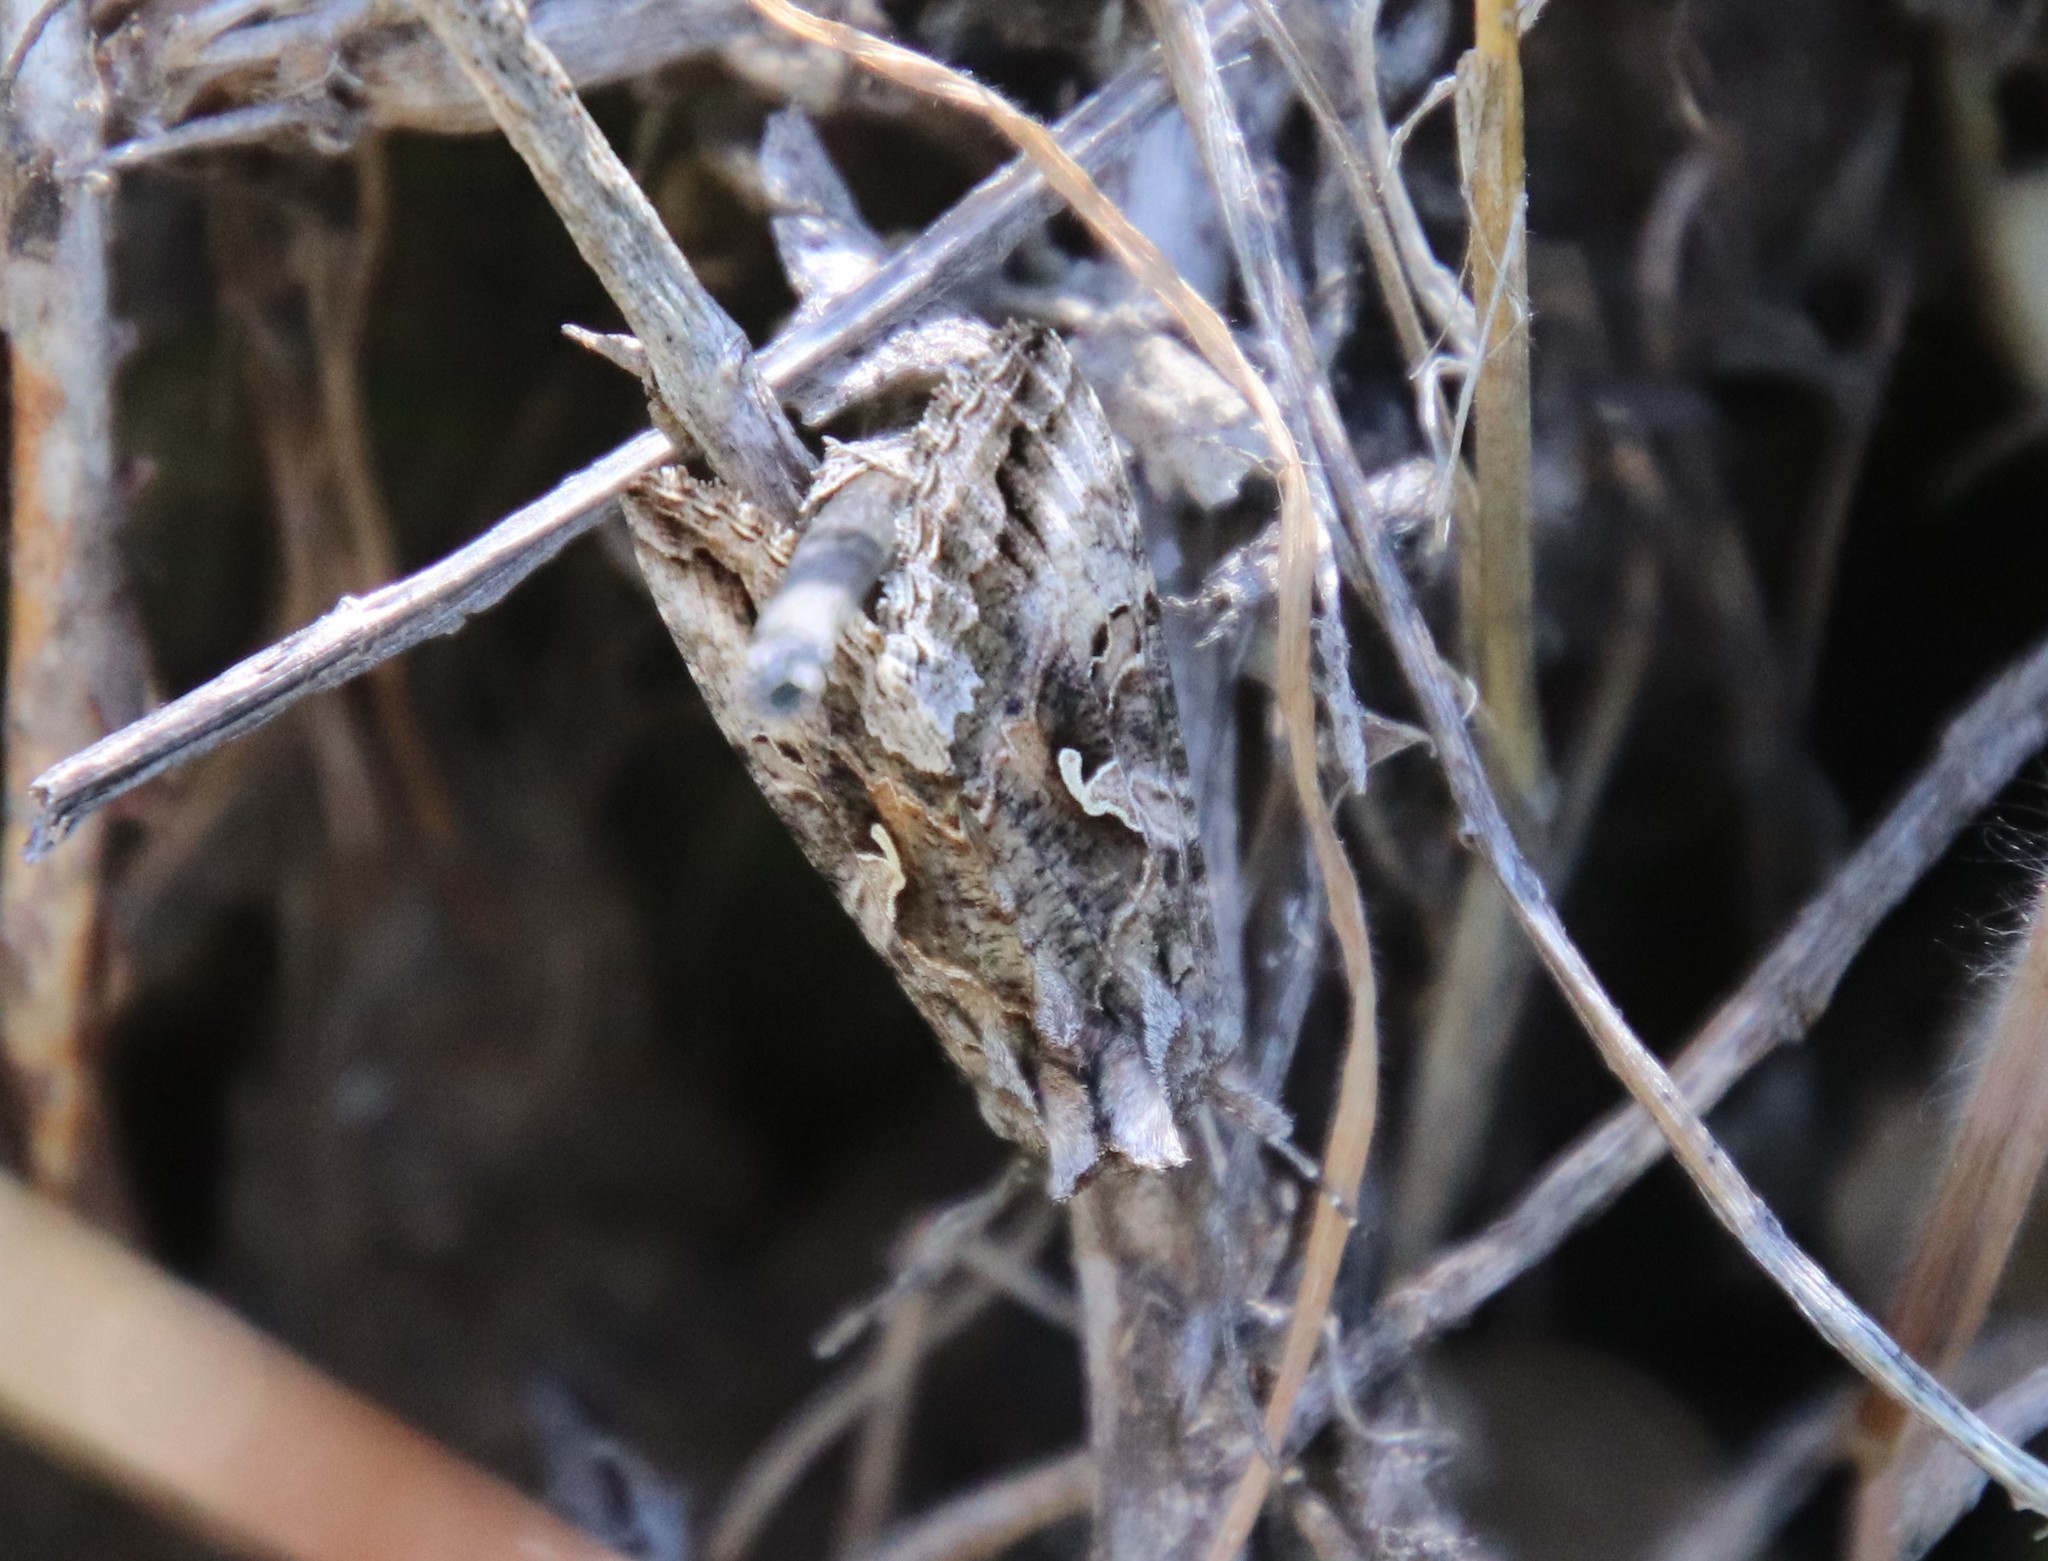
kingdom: Animalia
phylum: Arthropoda
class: Insecta
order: Lepidoptera
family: Noctuidae
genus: Autographa
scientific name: Autographa californica
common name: Alfalfa looper
